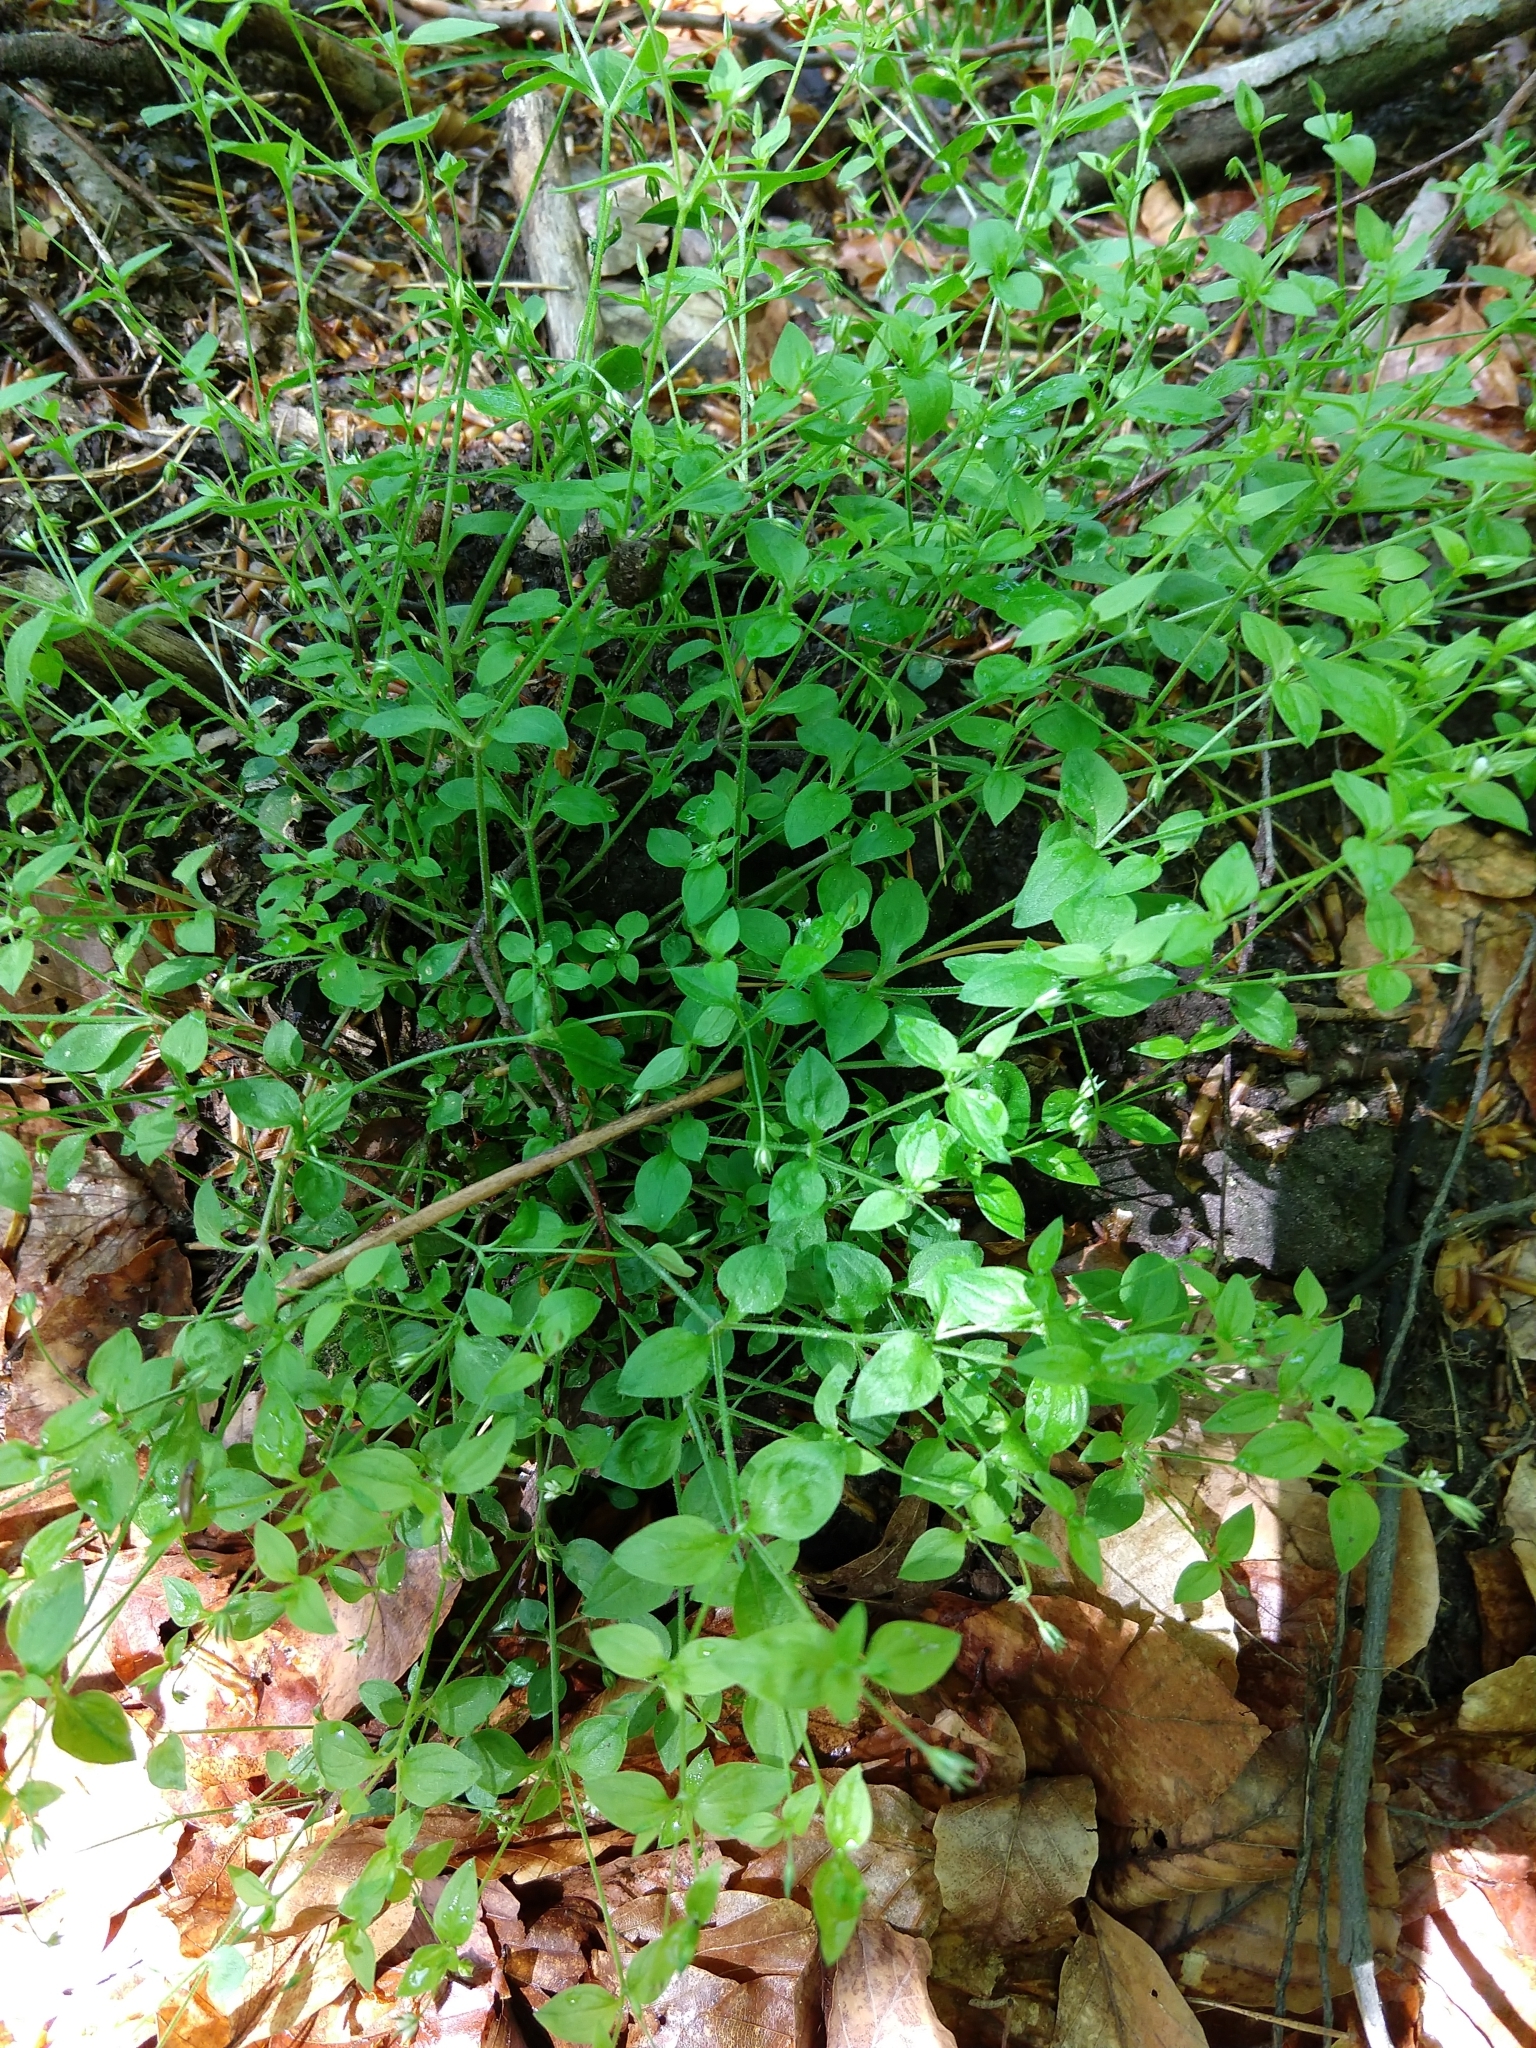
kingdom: Plantae
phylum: Tracheophyta
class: Magnoliopsida
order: Caryophyllales
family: Caryophyllaceae
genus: Moehringia
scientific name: Moehringia trinervia
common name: Three-nerved sandwort
